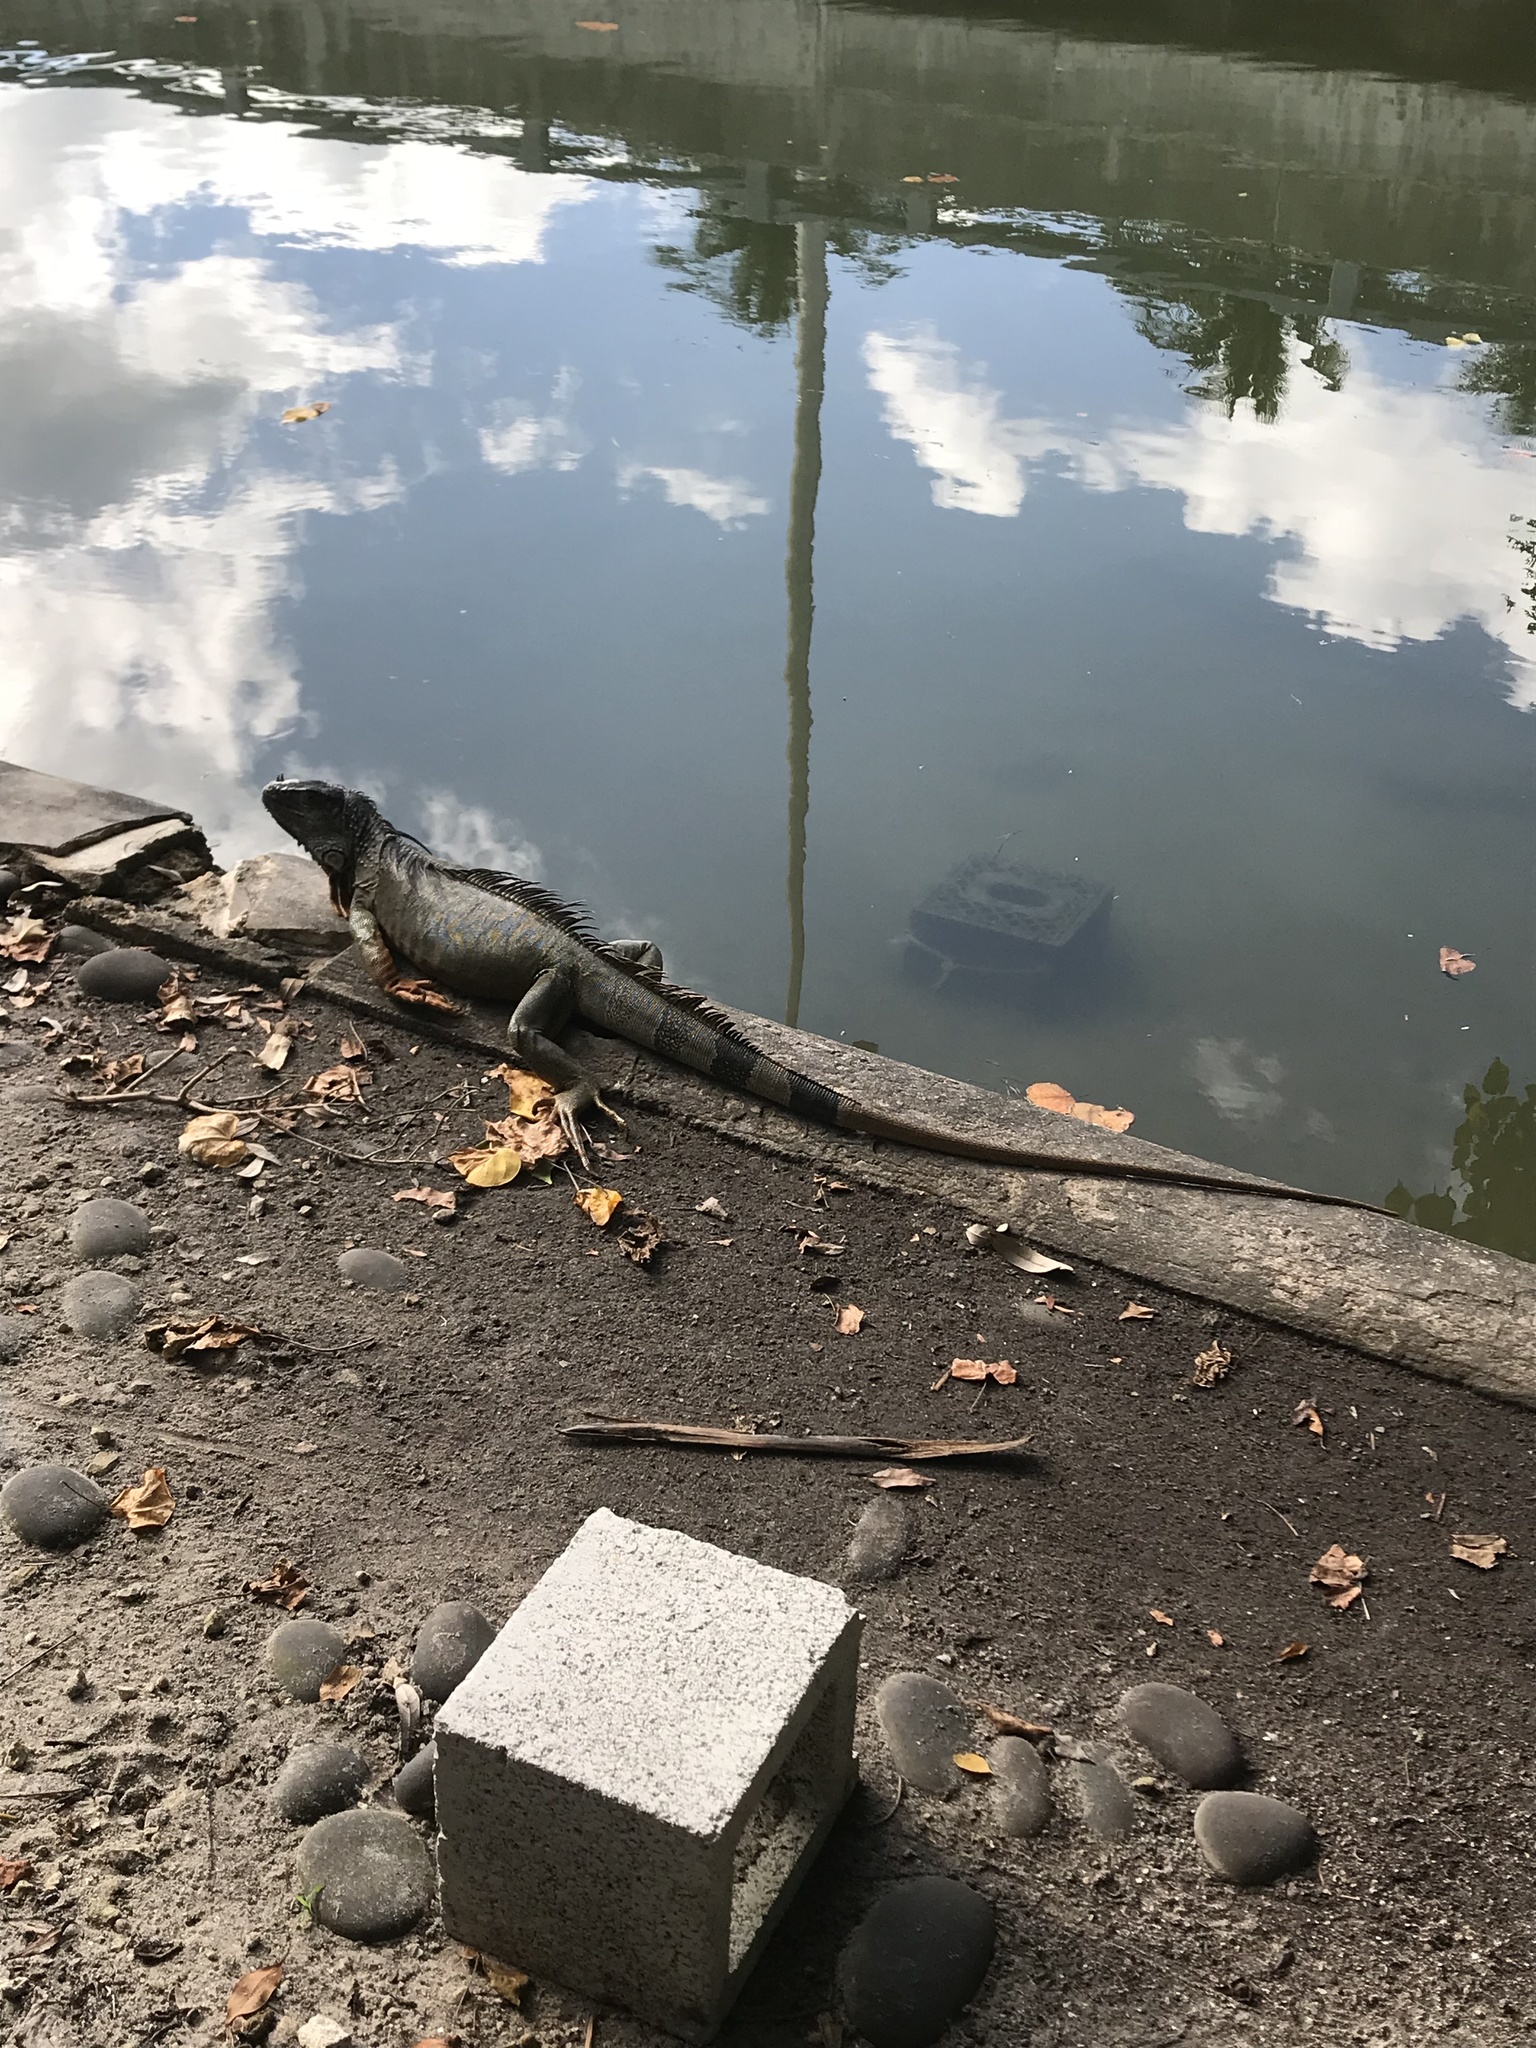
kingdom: Animalia
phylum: Chordata
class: Squamata
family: Iguanidae
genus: Iguana
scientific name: Iguana iguana
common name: Green iguana
